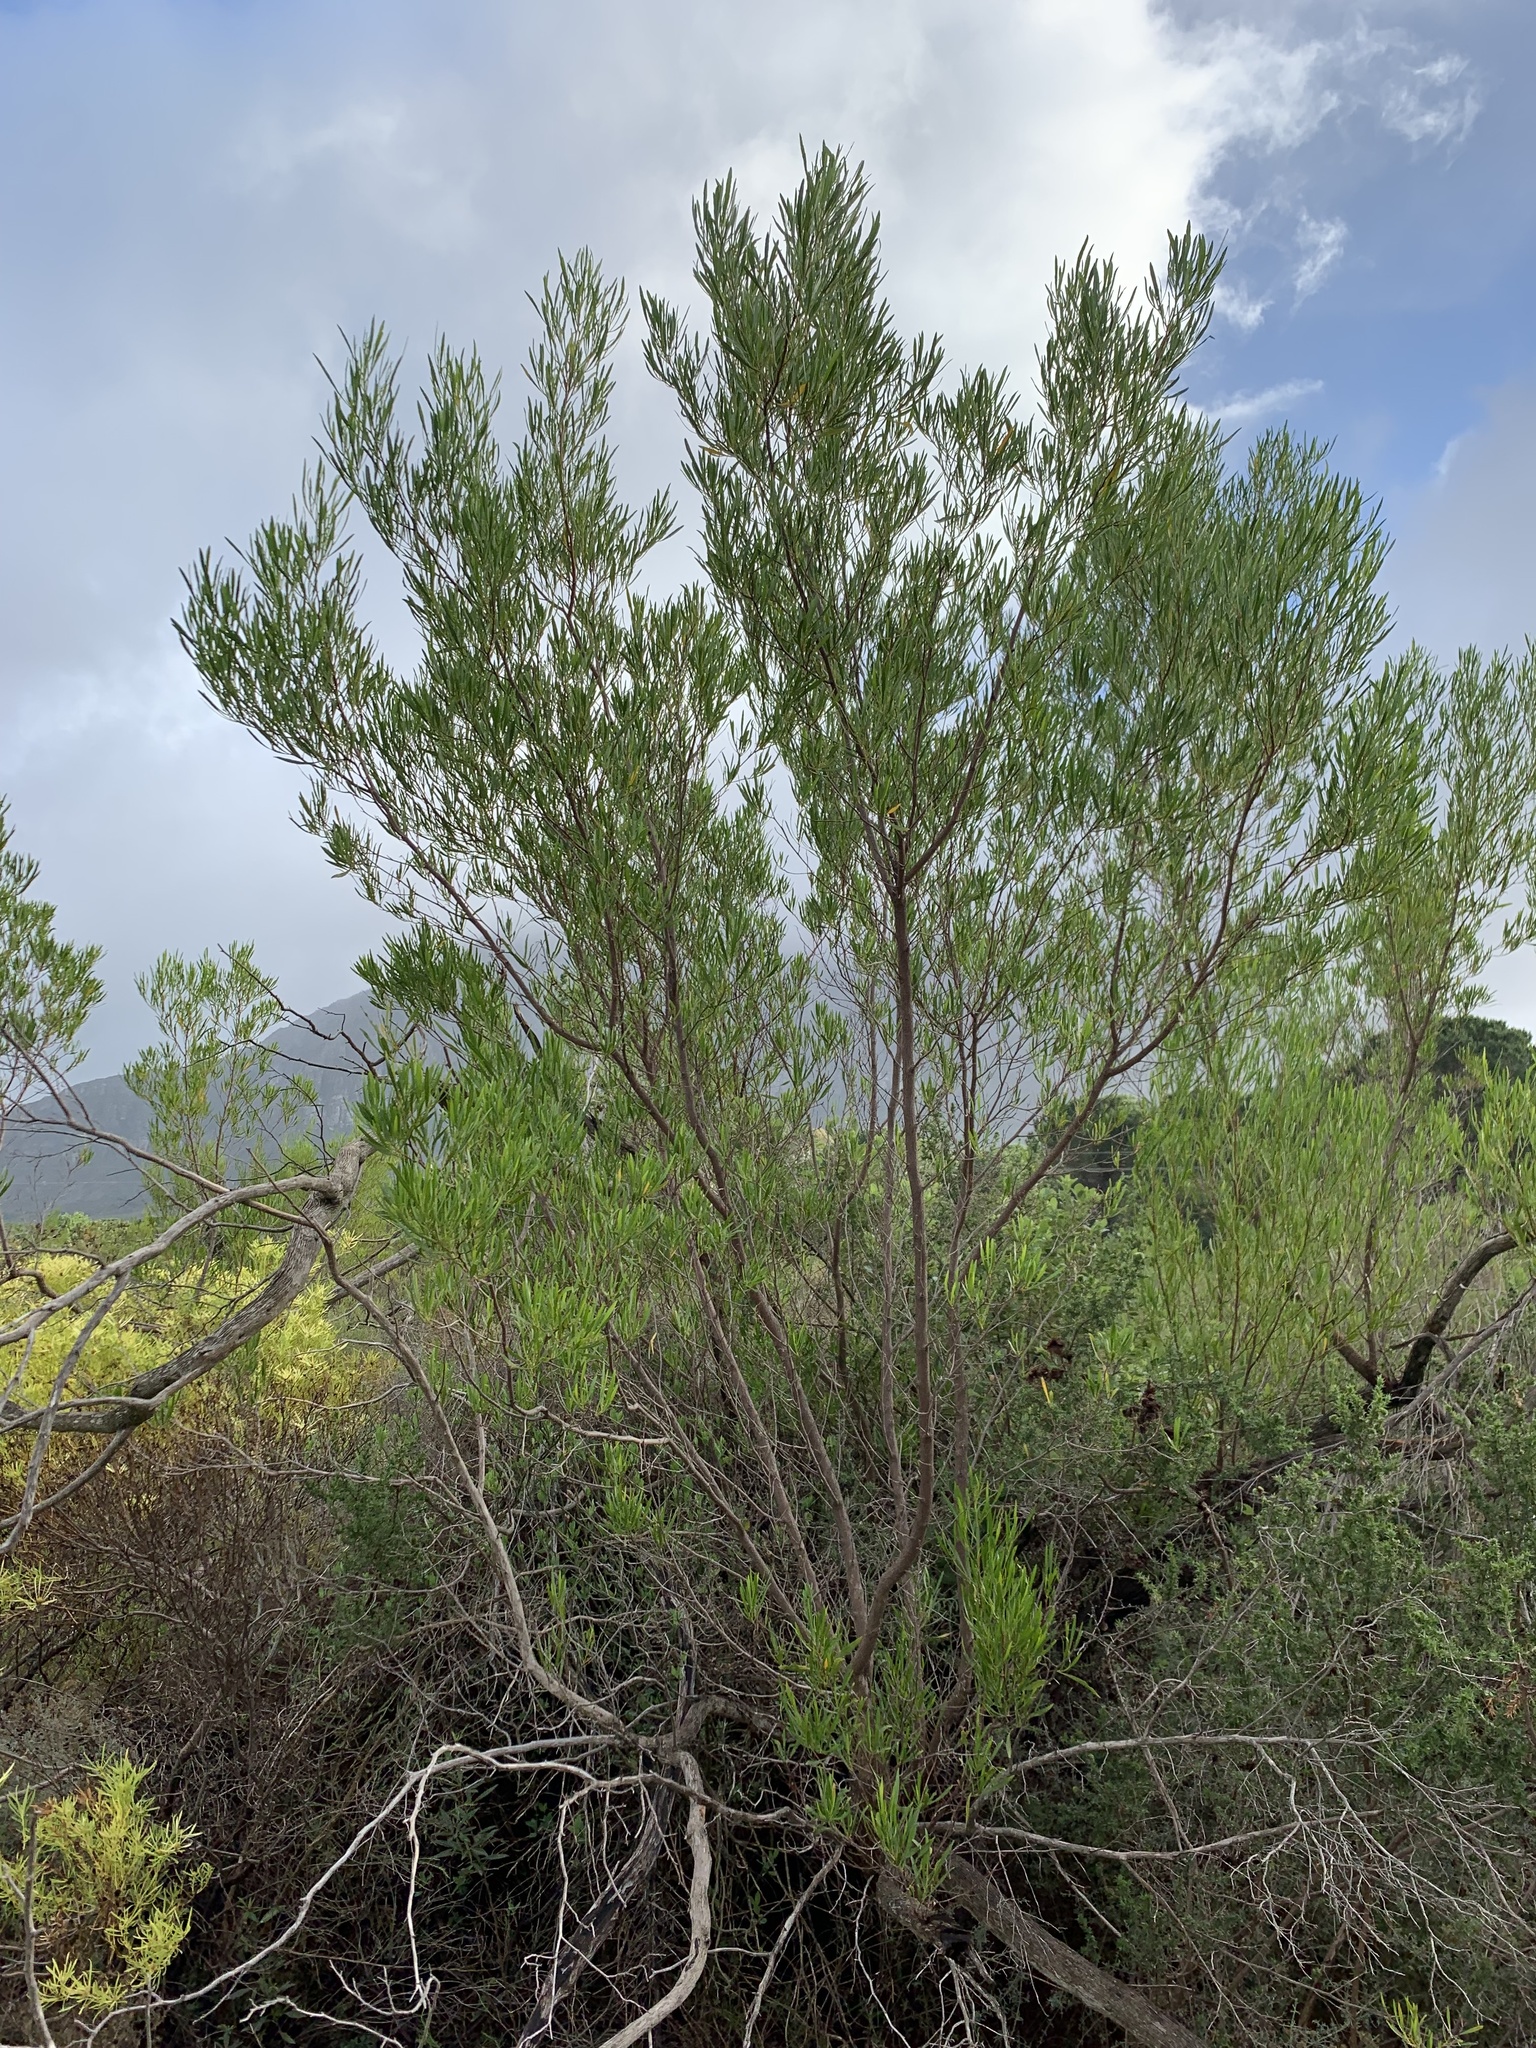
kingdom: Plantae
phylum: Tracheophyta
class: Magnoliopsida
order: Sapindales
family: Sapindaceae
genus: Dodonaea
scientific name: Dodonaea viscosa
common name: Hopbush
